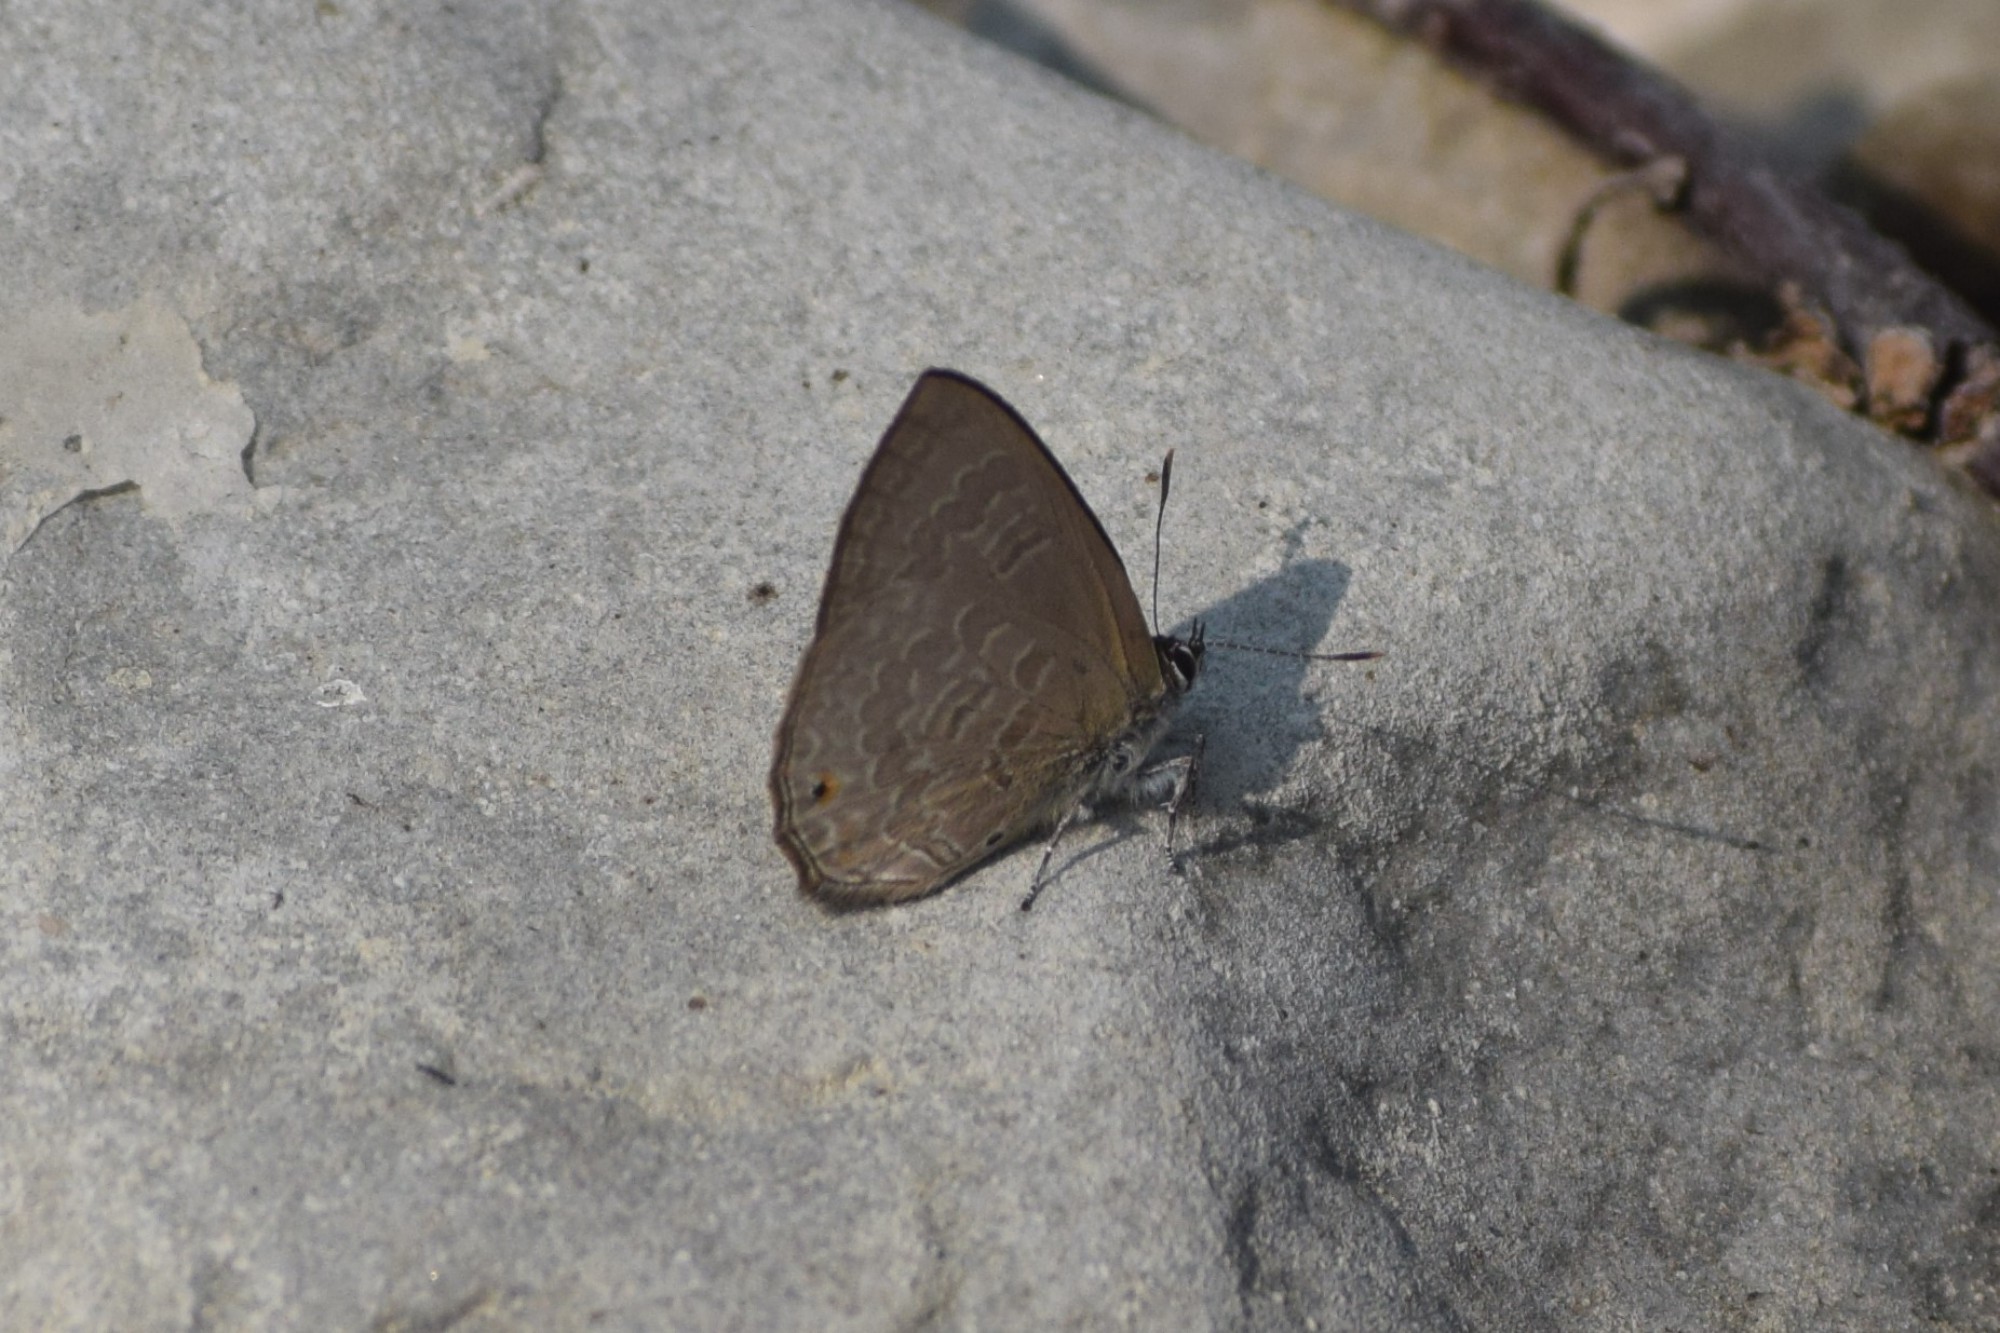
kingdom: Animalia
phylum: Arthropoda
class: Insecta
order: Lepidoptera
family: Lycaenidae
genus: Anthene
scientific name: Anthene emolus
